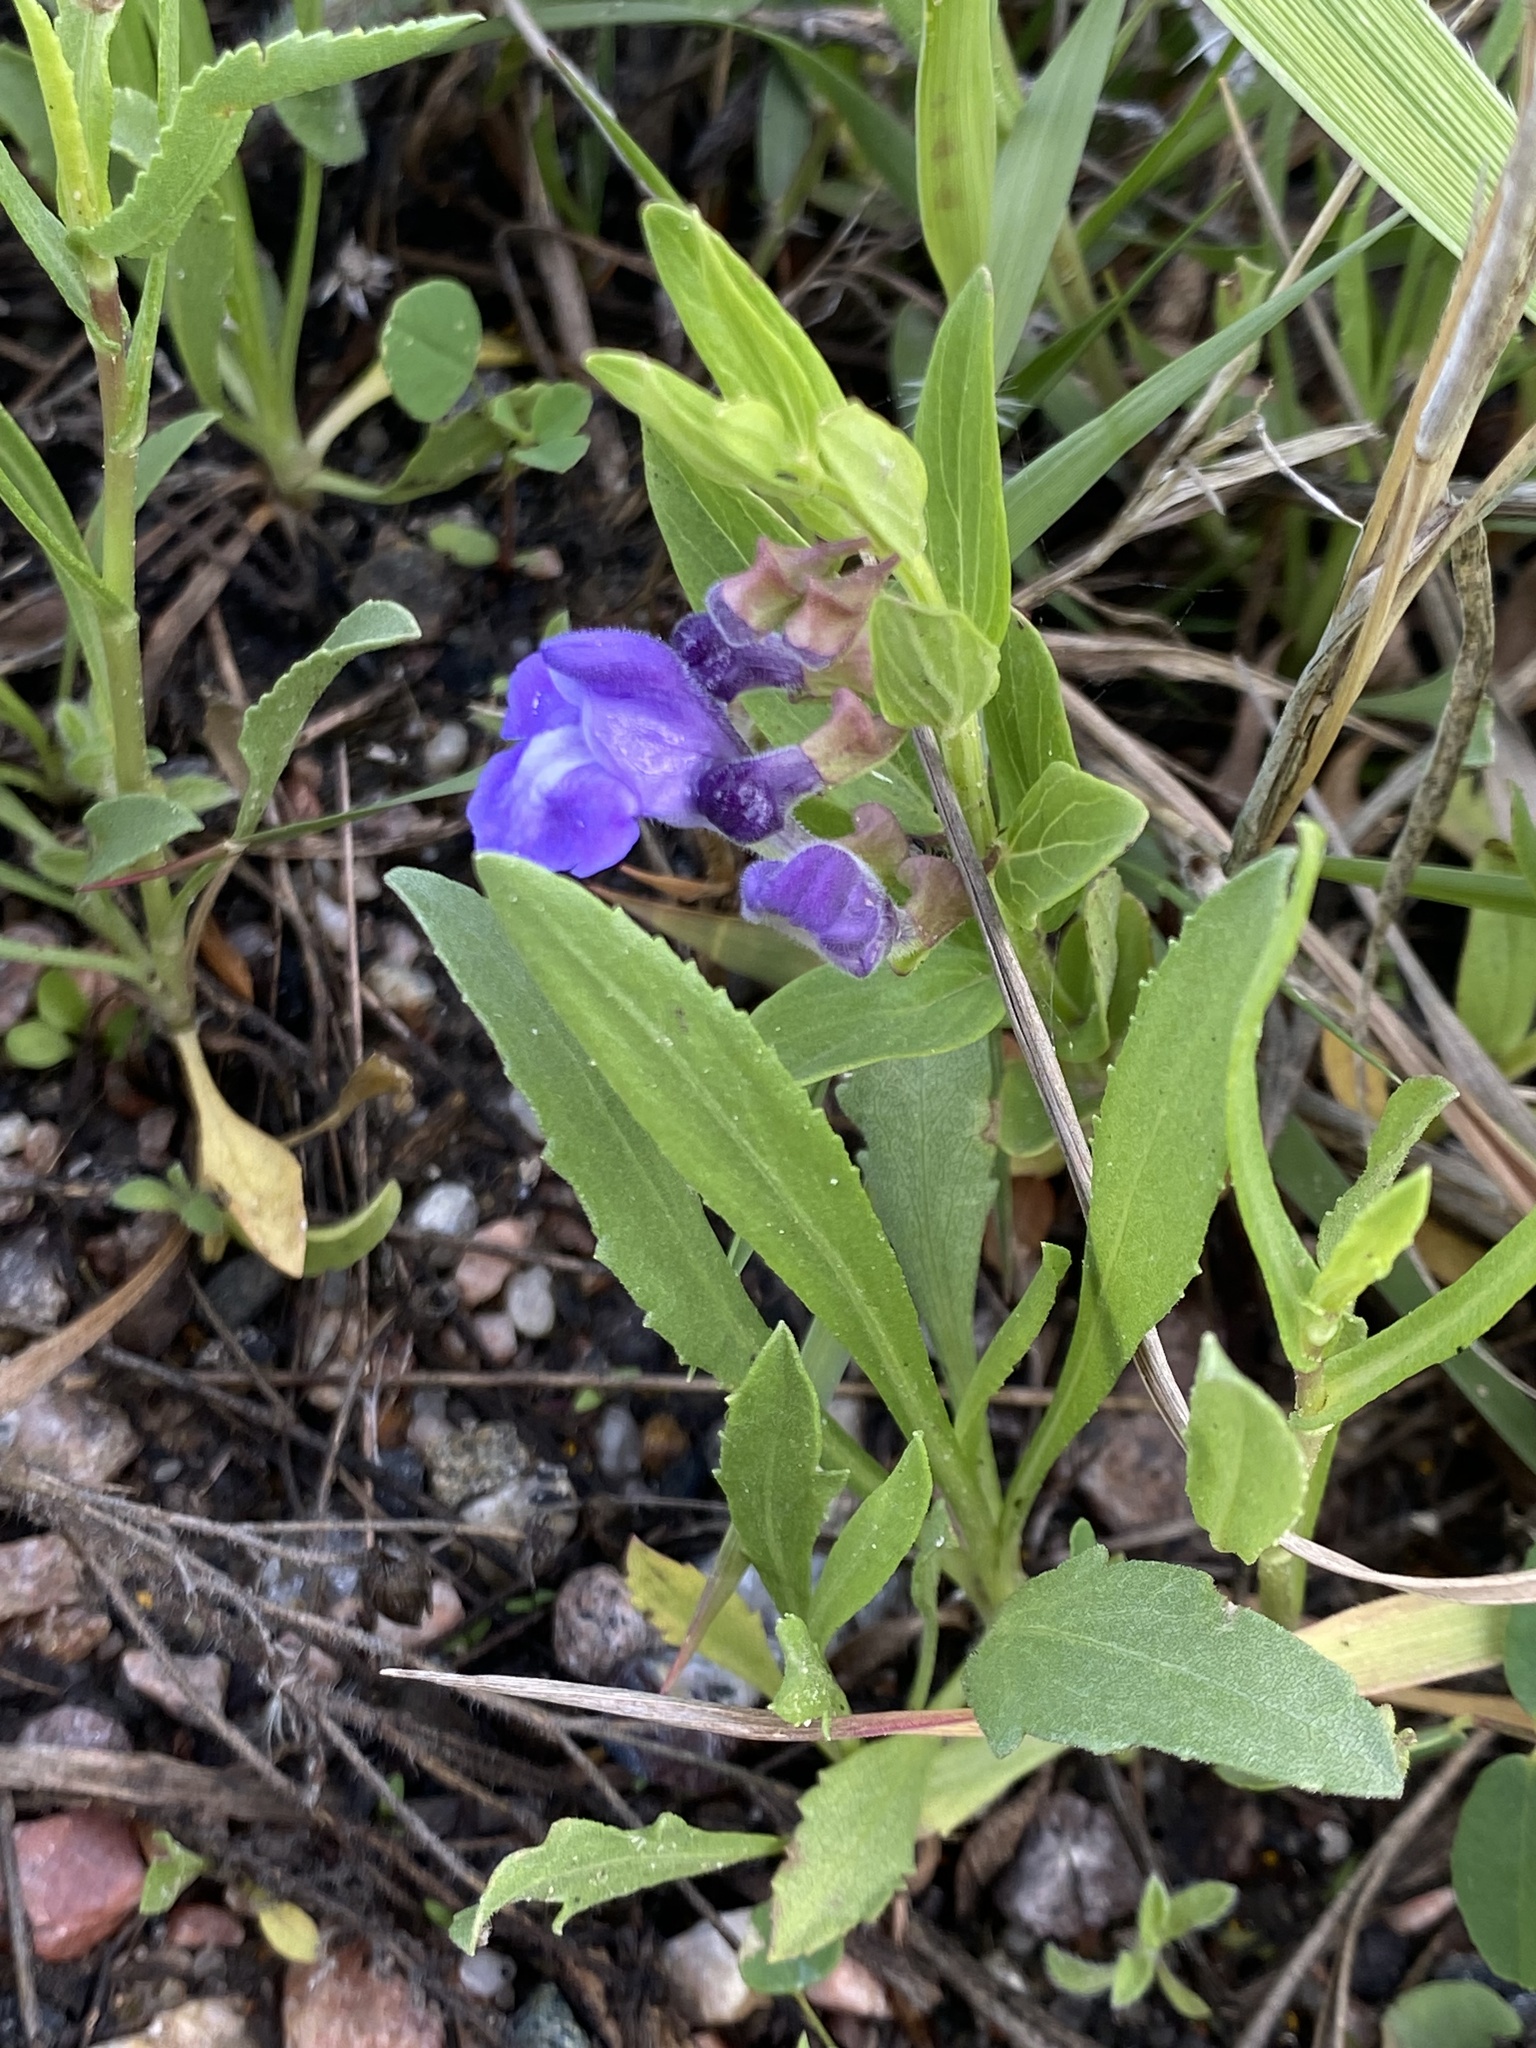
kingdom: Plantae
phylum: Tracheophyta
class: Magnoliopsida
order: Lamiales
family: Lamiaceae
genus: Scutellaria
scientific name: Scutellaria brittonii
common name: Britton's skullcap
